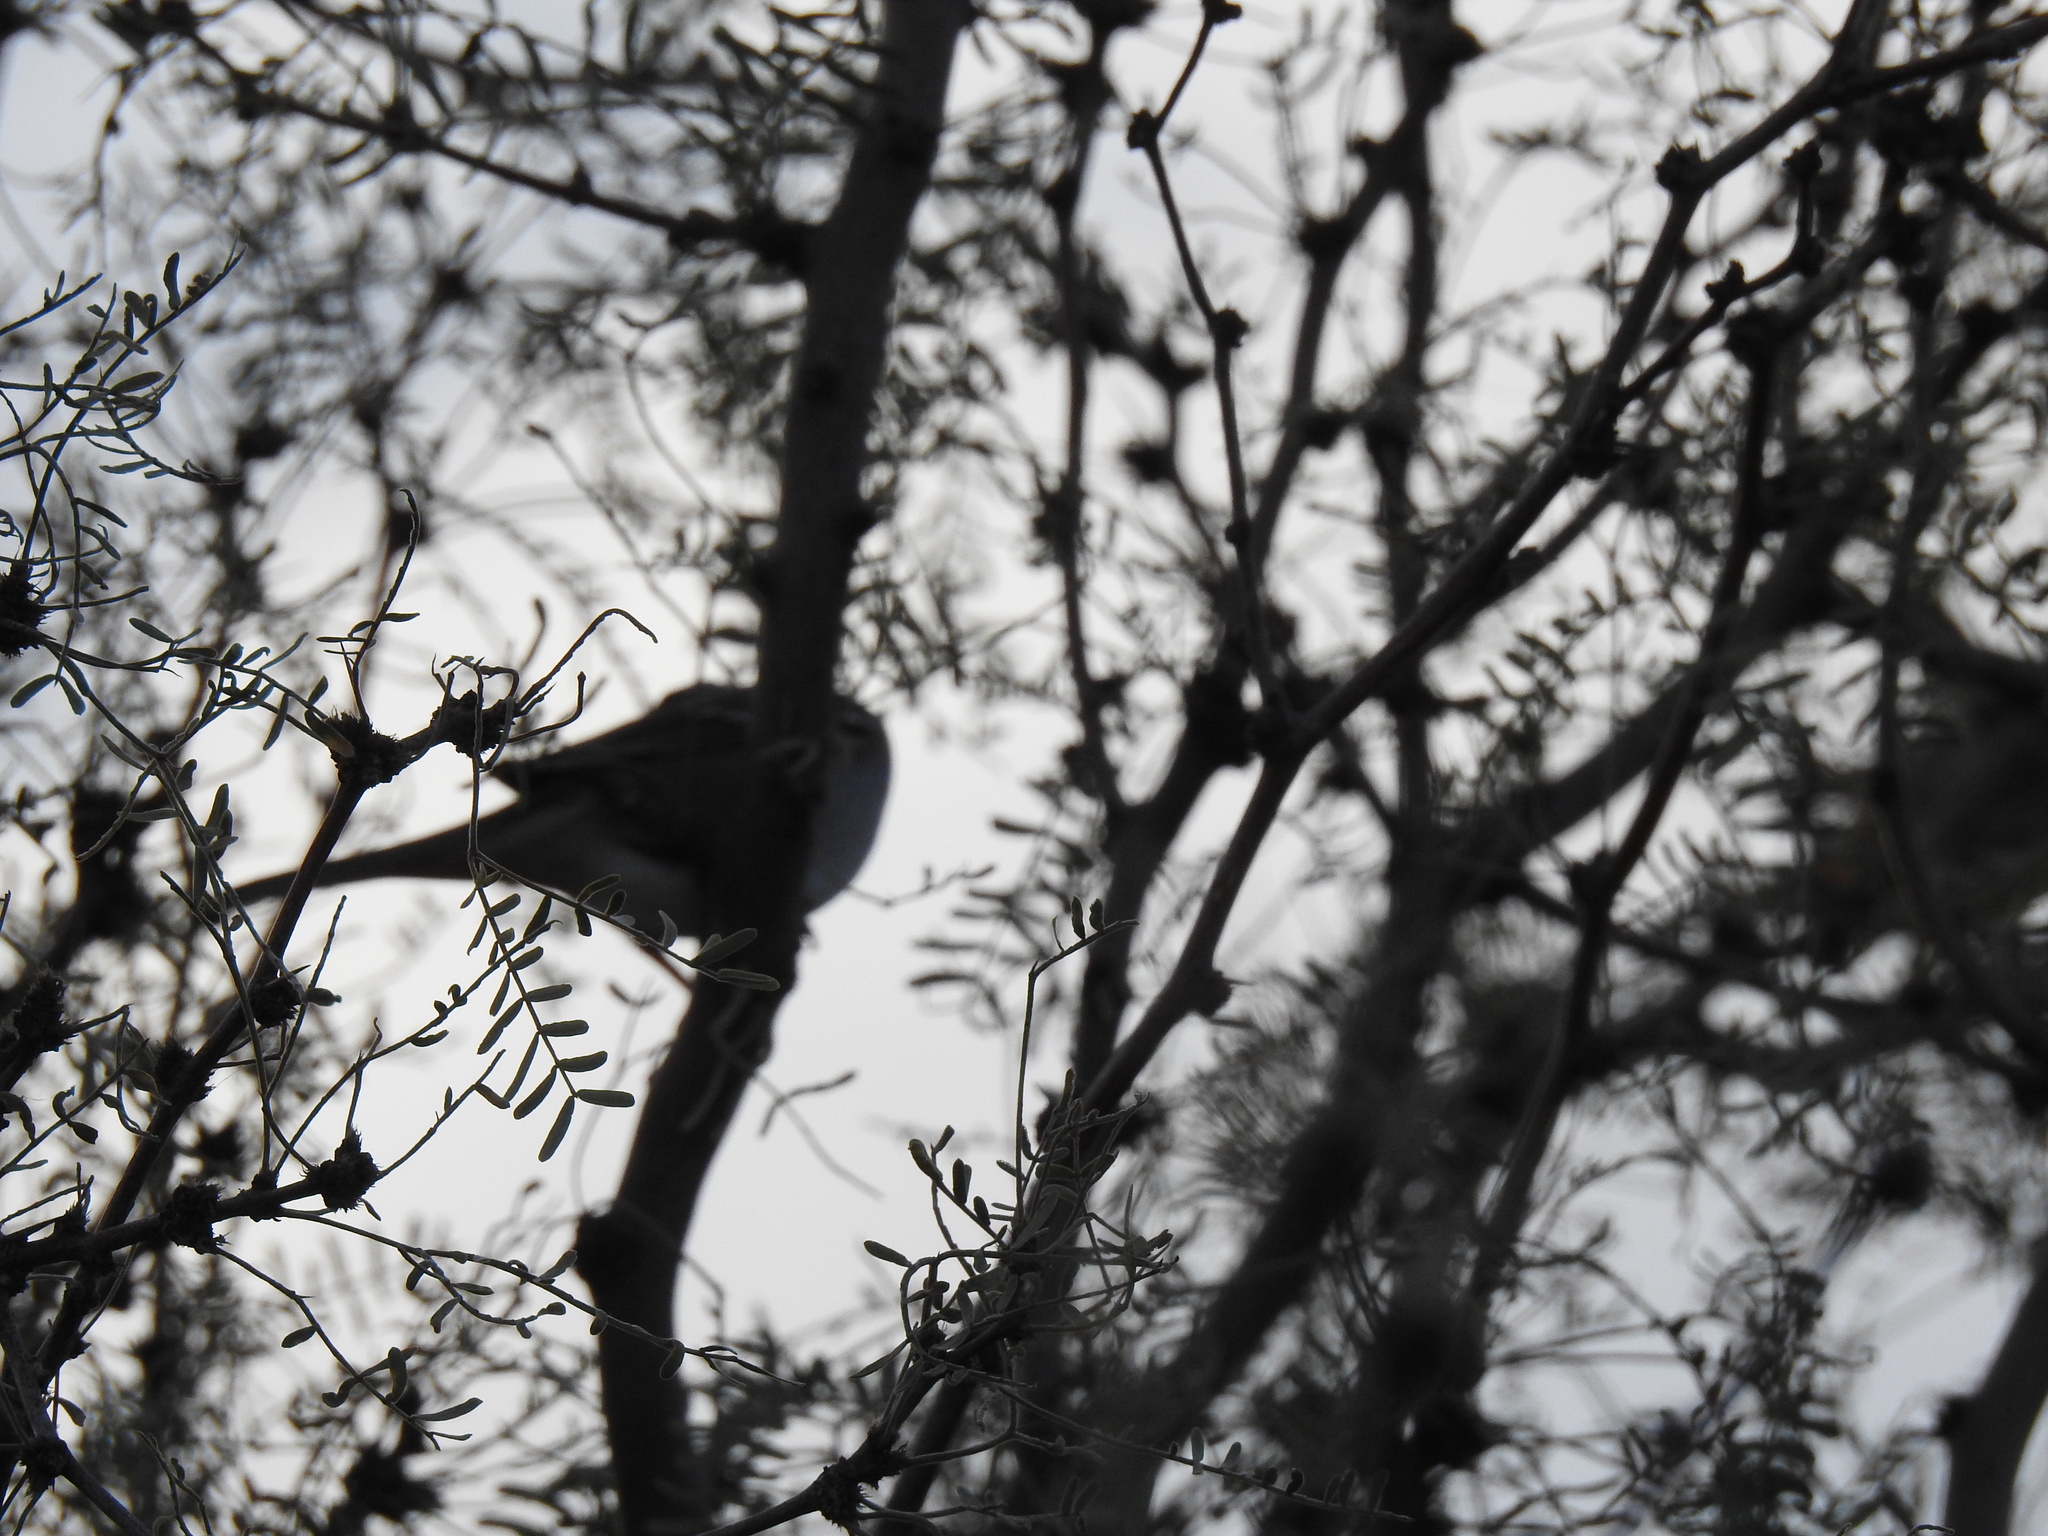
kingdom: Animalia
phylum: Chordata
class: Aves
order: Passeriformes
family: Passerellidae
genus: Zonotrichia
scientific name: Zonotrichia leucophrys
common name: White-crowned sparrow
